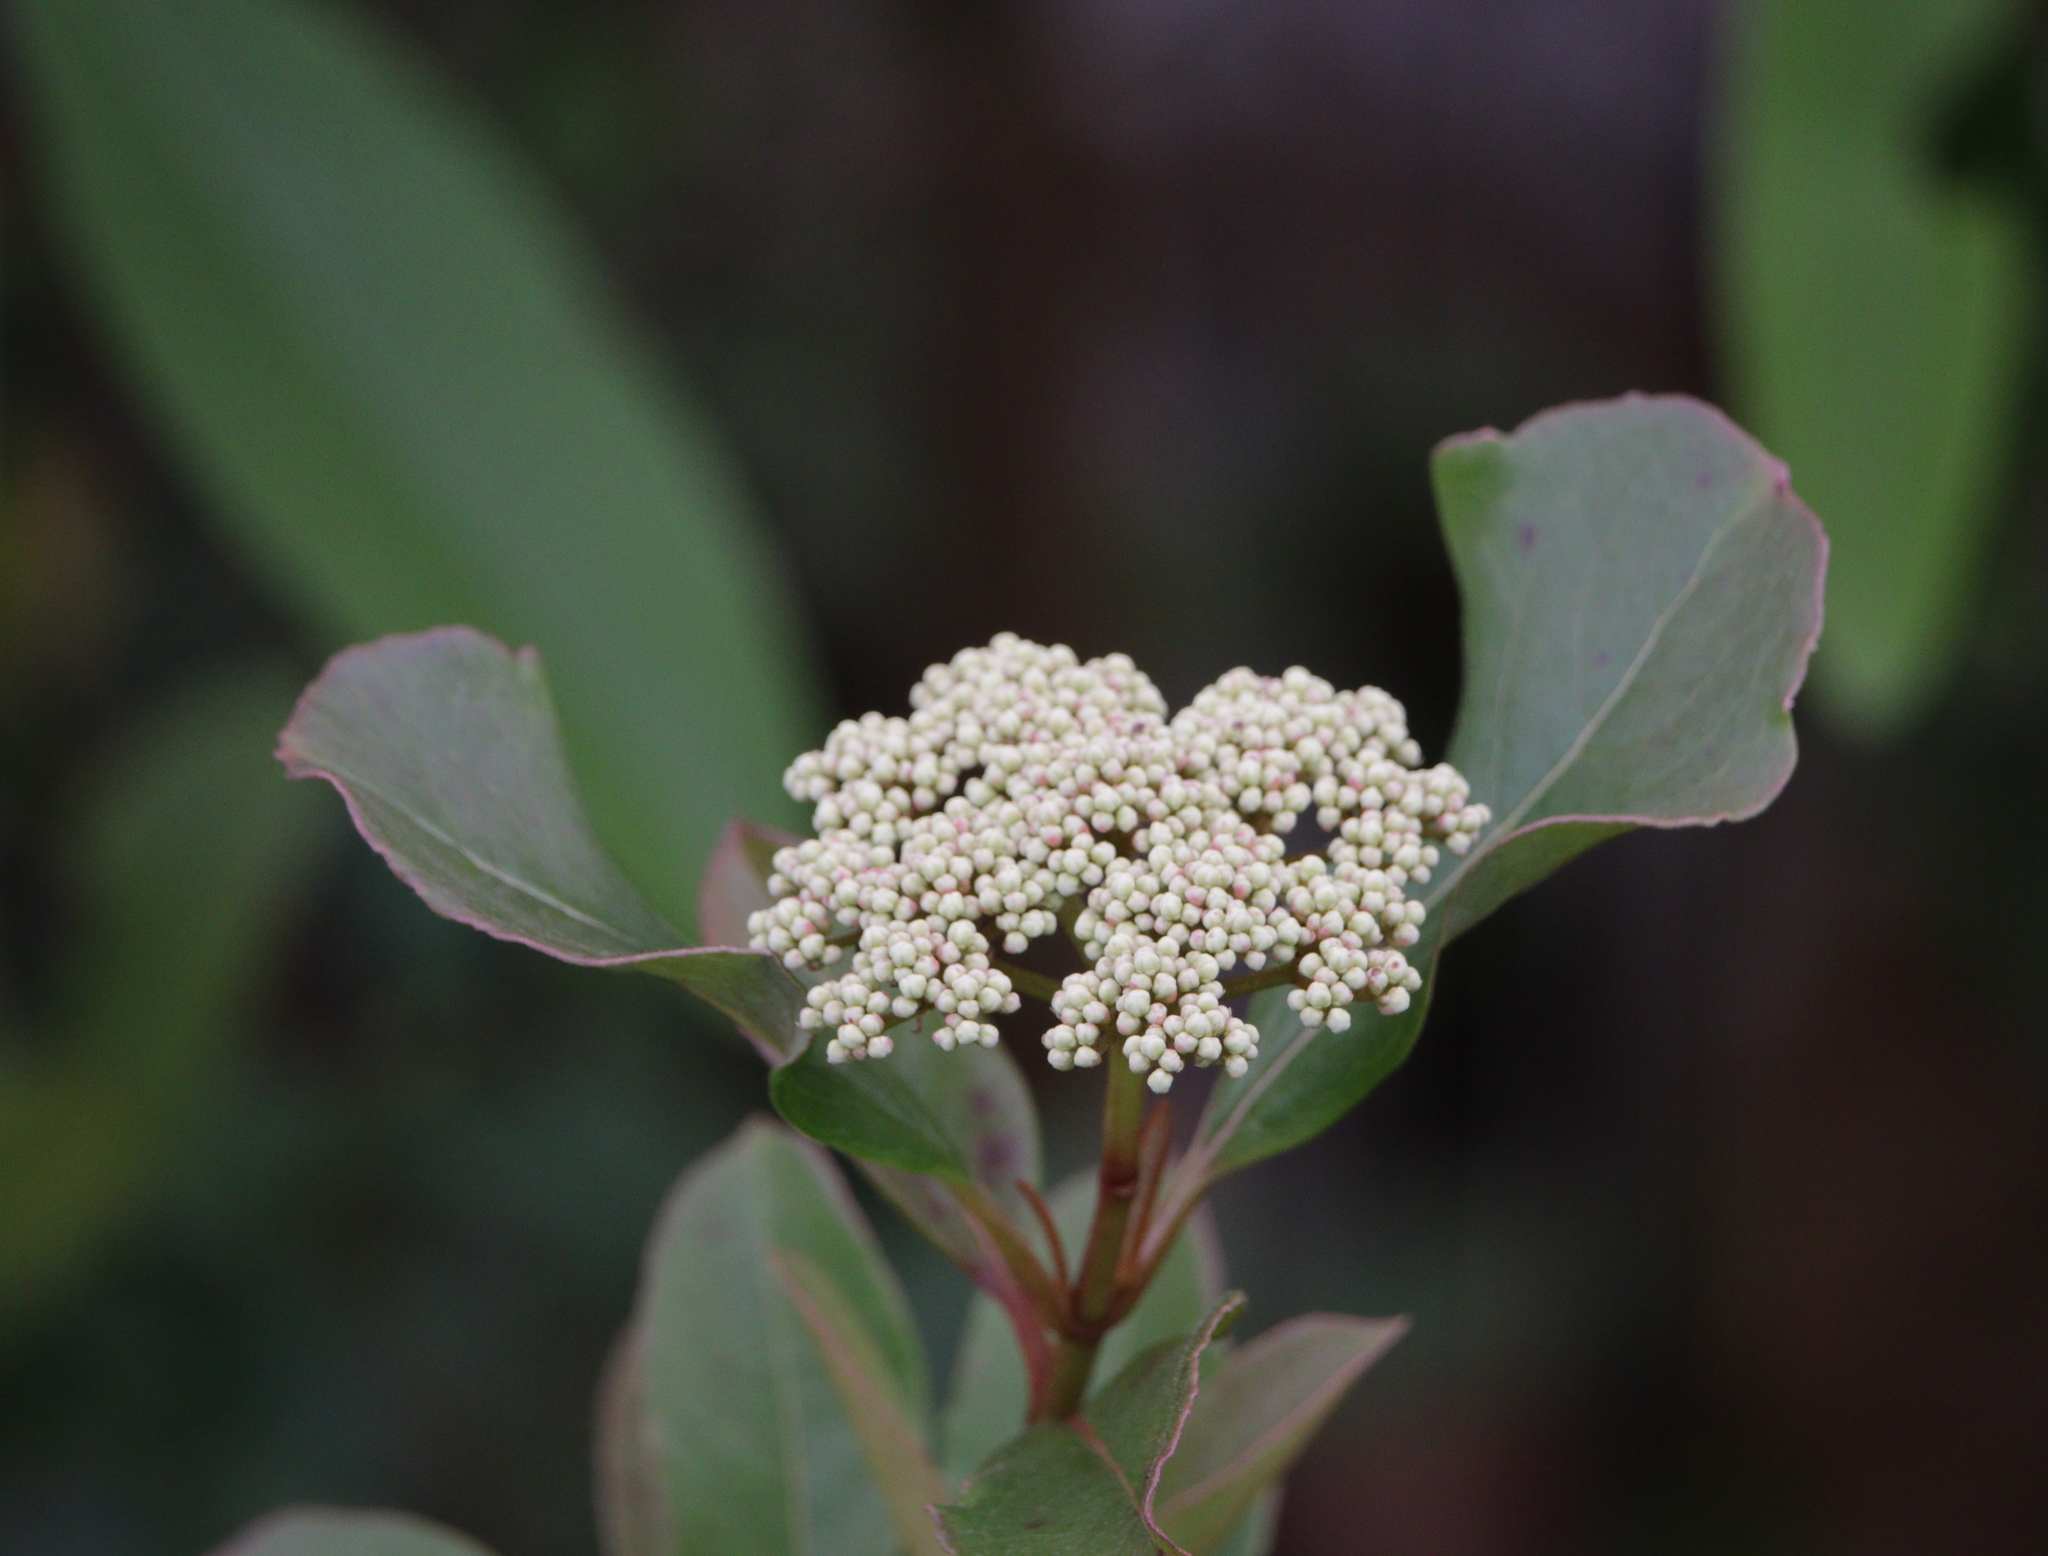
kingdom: Plantae
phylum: Tracheophyta
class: Magnoliopsida
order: Dipsacales
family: Viburnaceae
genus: Viburnum
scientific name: Viburnum nudum
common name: Possum haw
